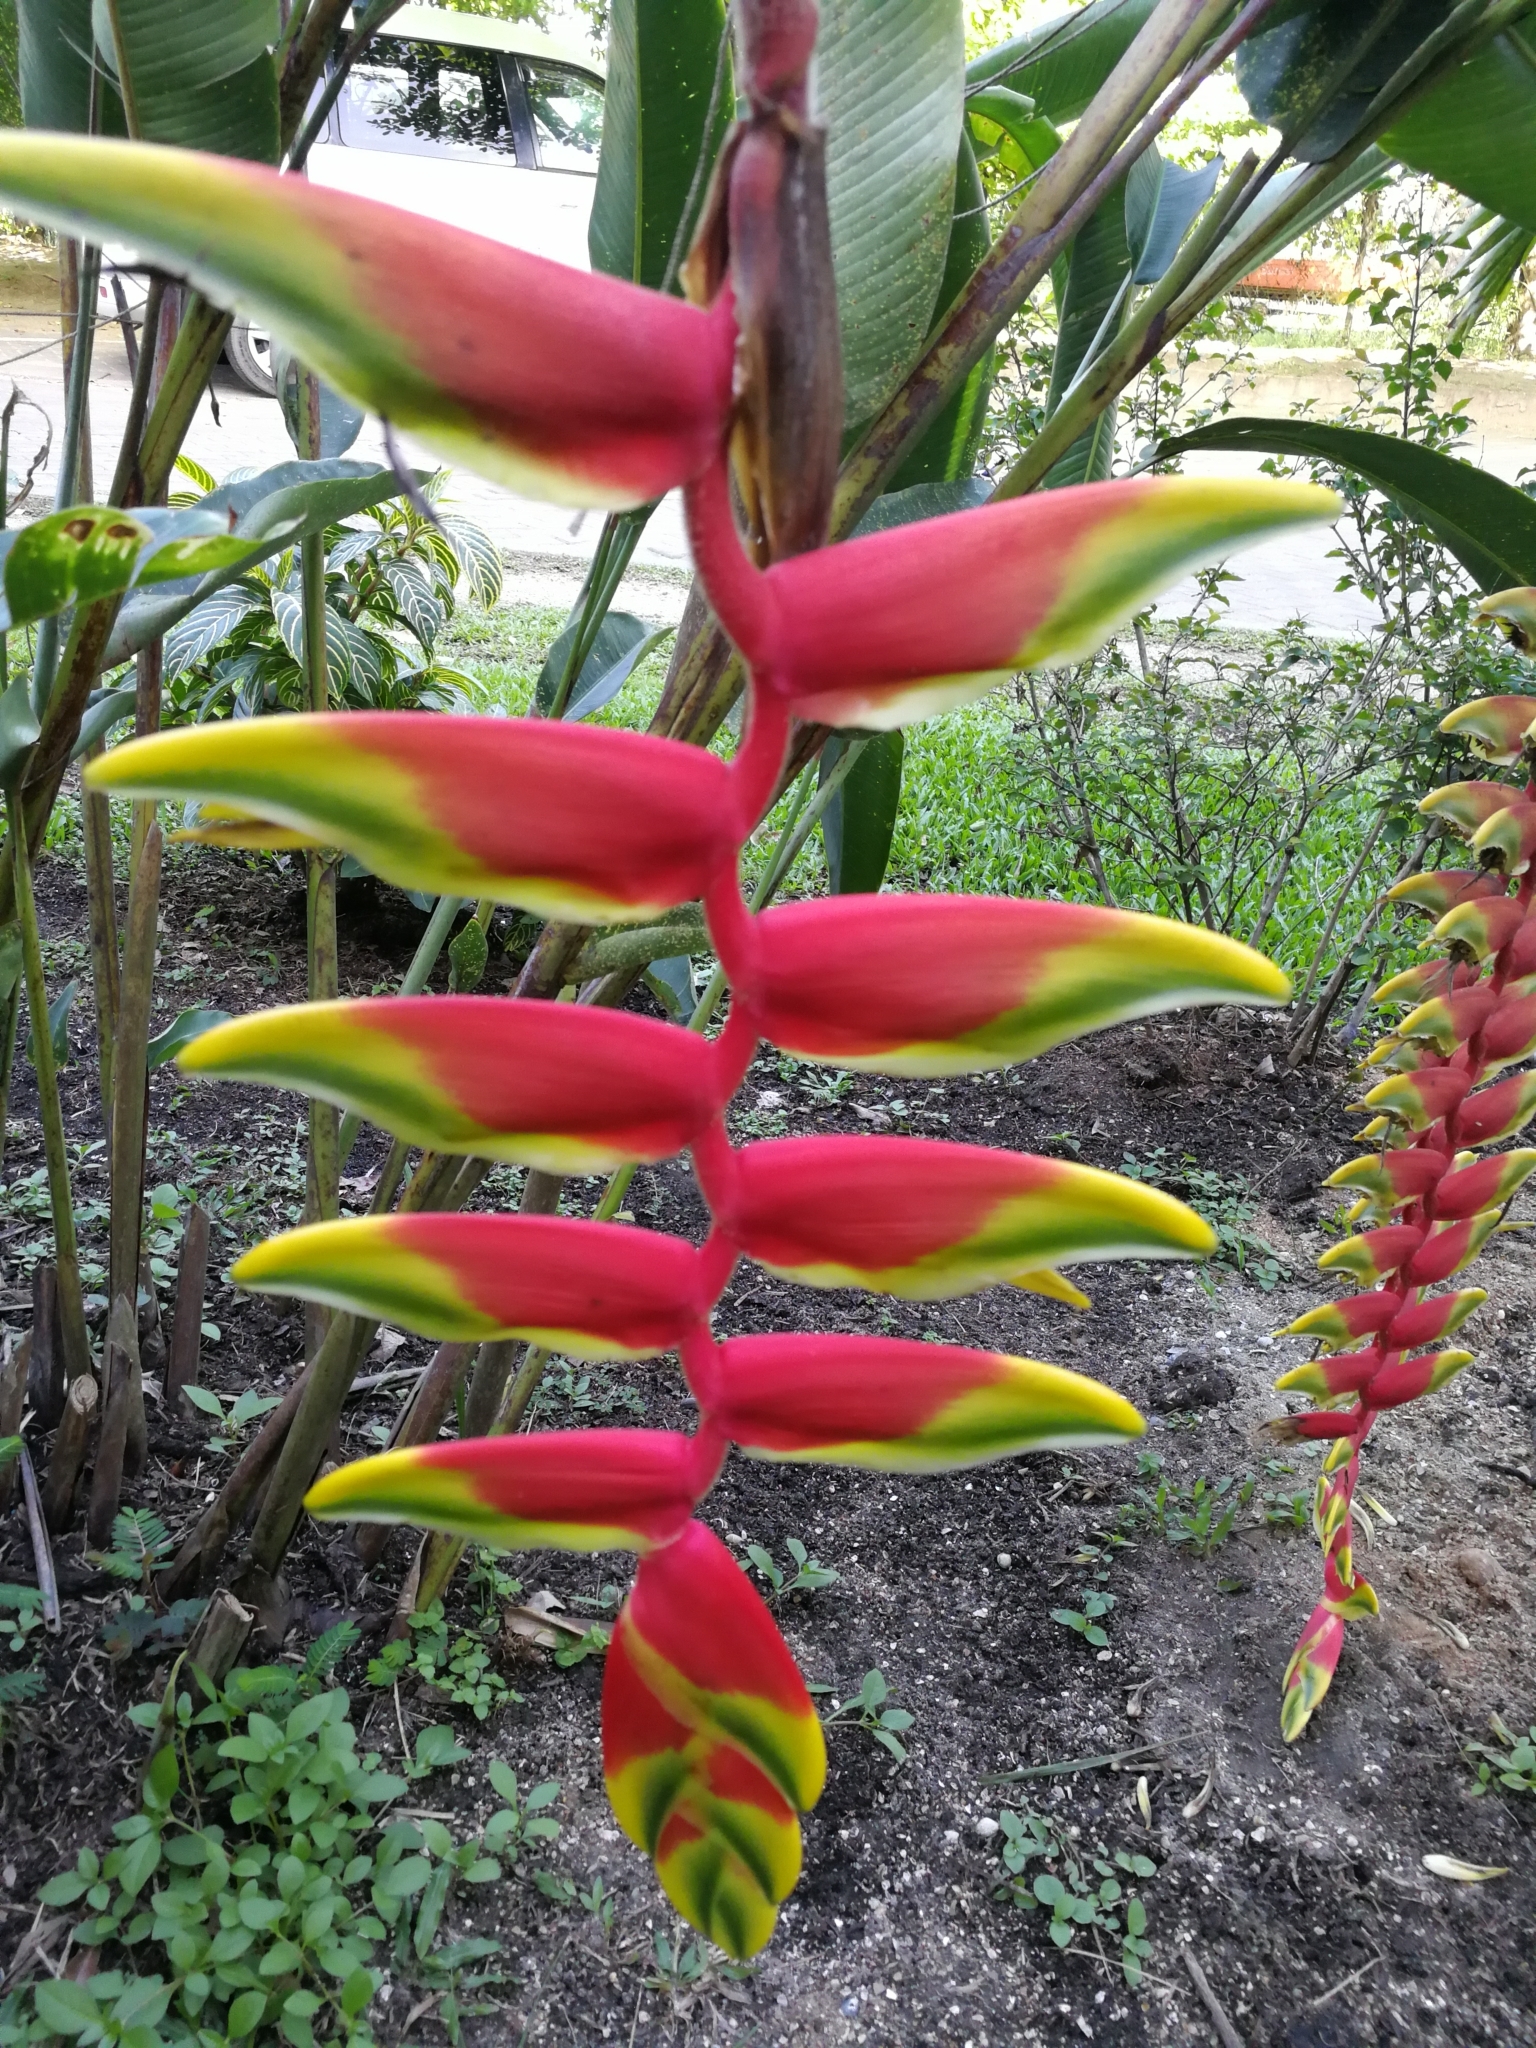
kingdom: Plantae
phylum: Tracheophyta
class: Liliopsida
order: Zingiberales
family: Heliconiaceae
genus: Heliconia
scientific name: Heliconia rostrata
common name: False bird of paradise
